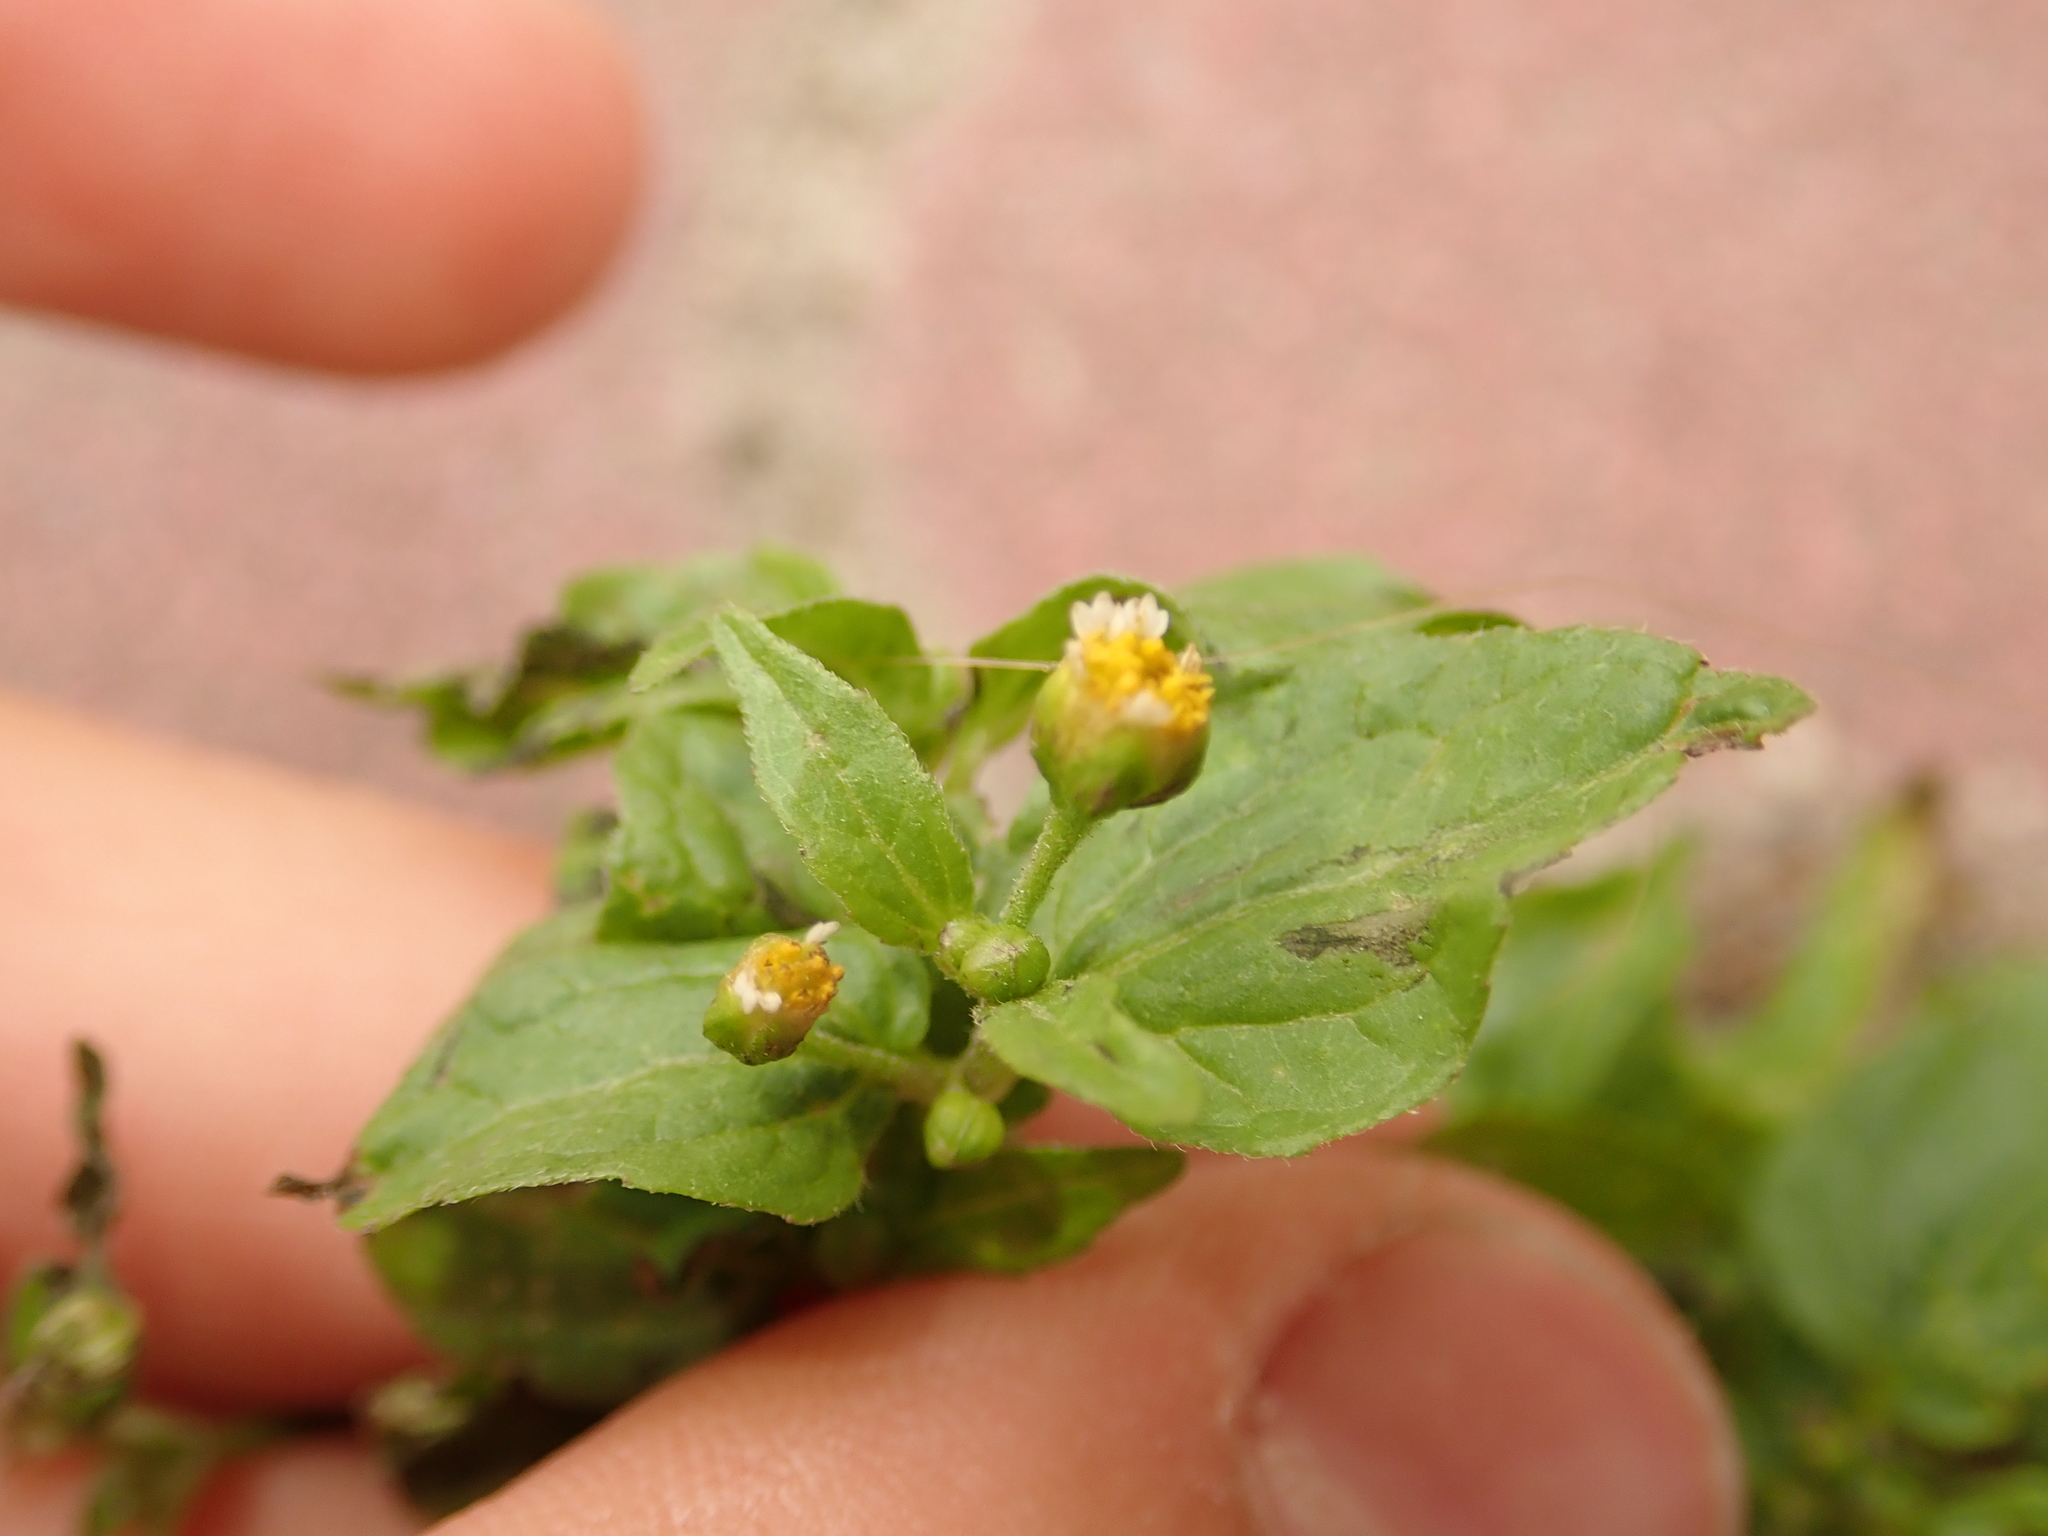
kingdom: Plantae
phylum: Tracheophyta
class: Magnoliopsida
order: Asterales
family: Asteraceae
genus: Galinsoga
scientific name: Galinsoga parviflora
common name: Gallant soldier
